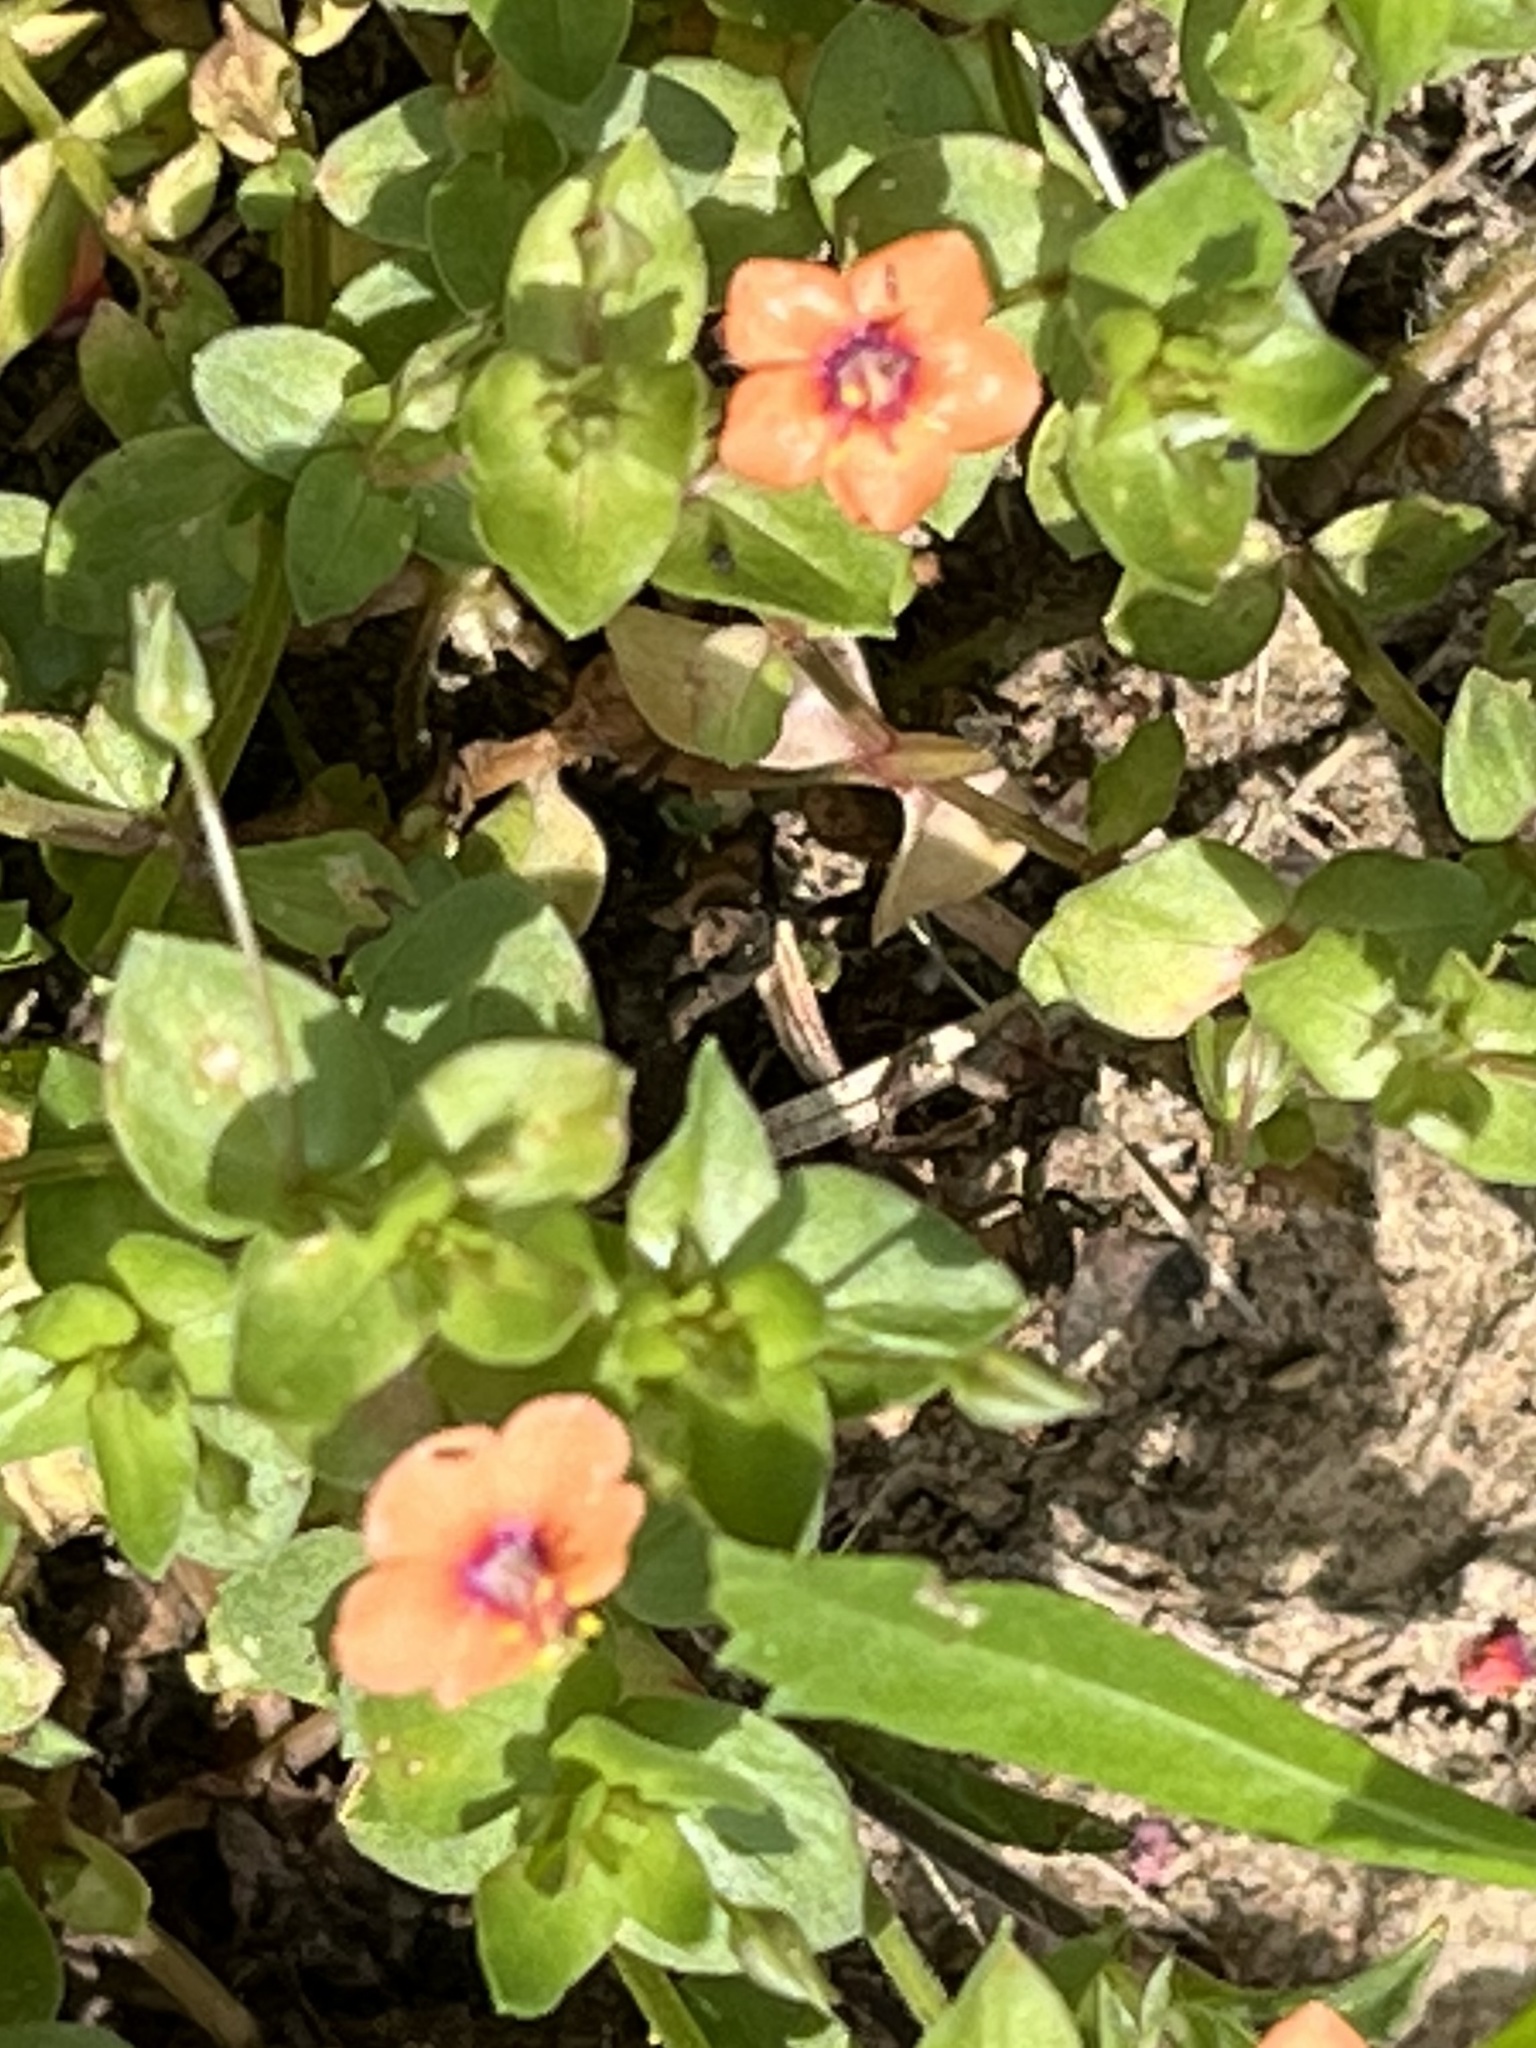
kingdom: Plantae
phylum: Tracheophyta
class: Magnoliopsida
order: Ericales
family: Primulaceae
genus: Lysimachia
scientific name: Lysimachia arvensis
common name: Scarlet pimpernel
